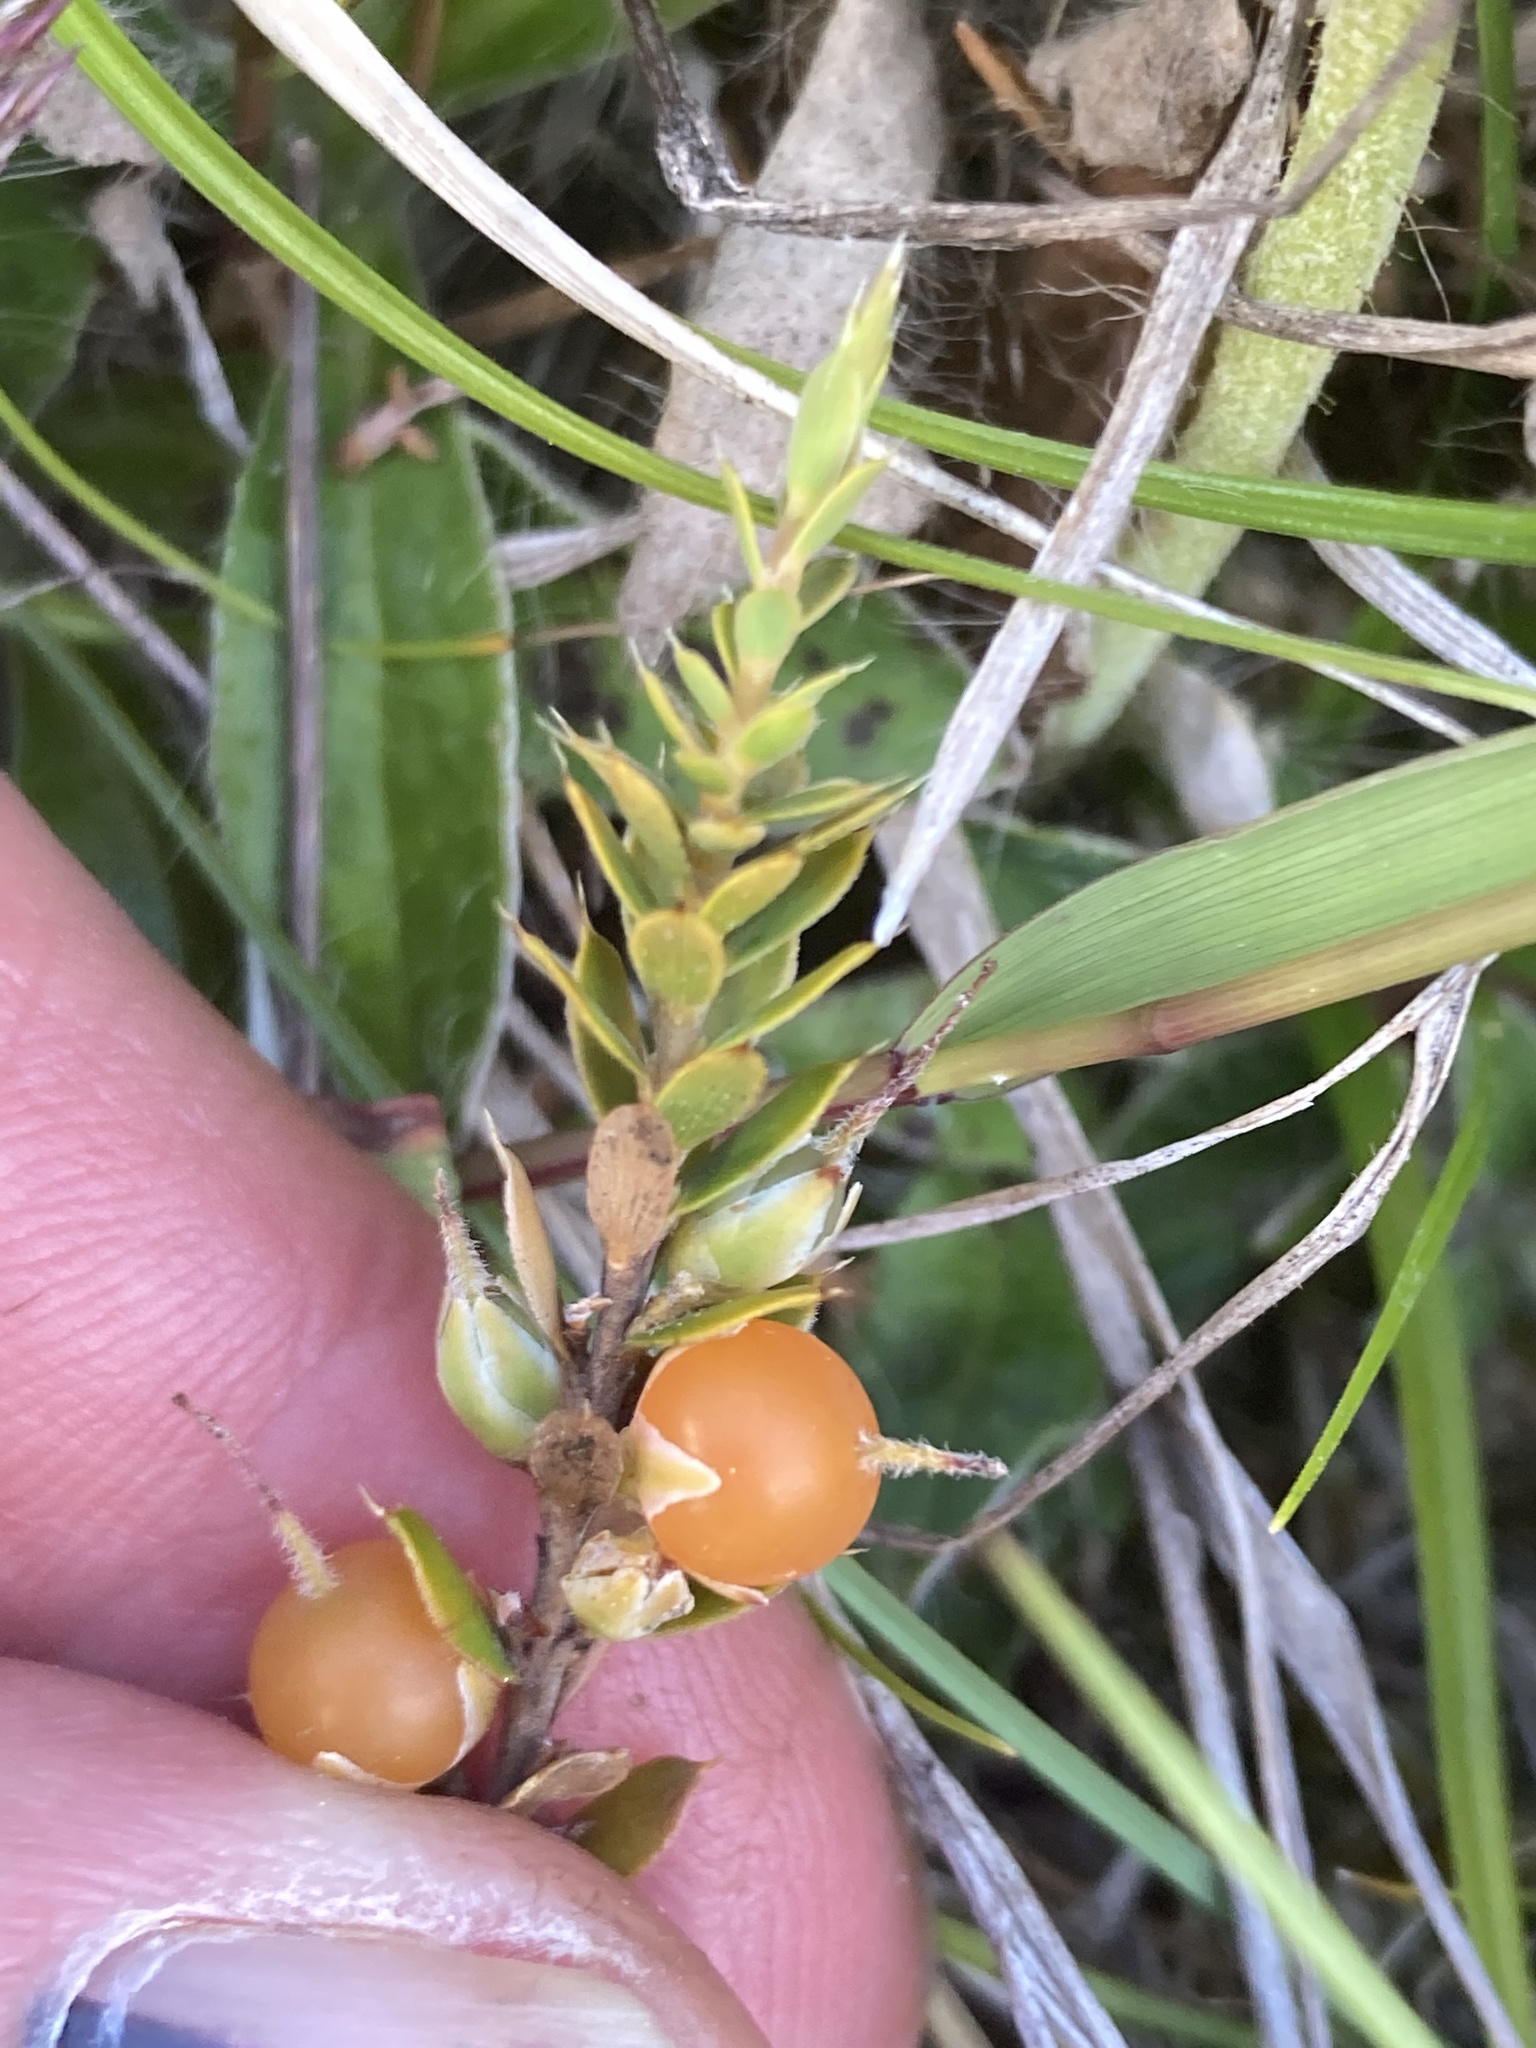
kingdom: Plantae
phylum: Tracheophyta
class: Magnoliopsida
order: Ericales
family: Ericaceae
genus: Styphelia
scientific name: Styphelia nesophila
